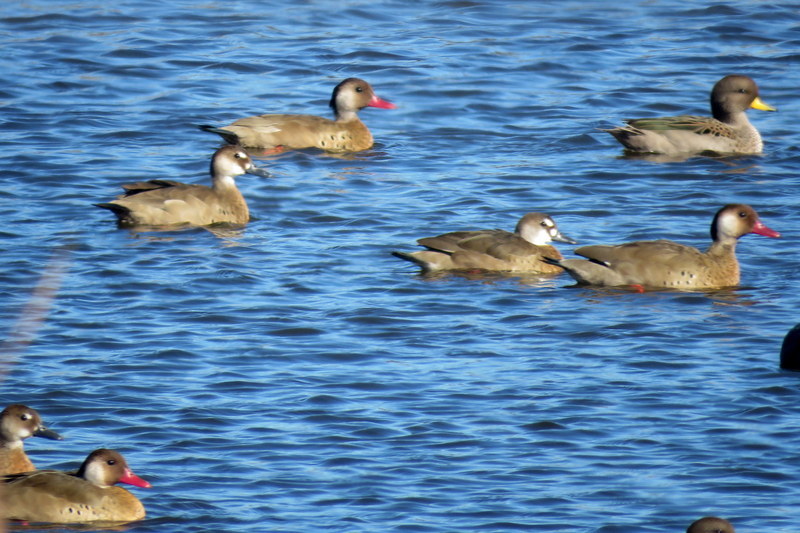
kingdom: Animalia
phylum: Chordata
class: Aves
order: Anseriformes
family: Anatidae
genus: Amazonetta
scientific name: Amazonetta brasiliensis
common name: Brazilian teal
